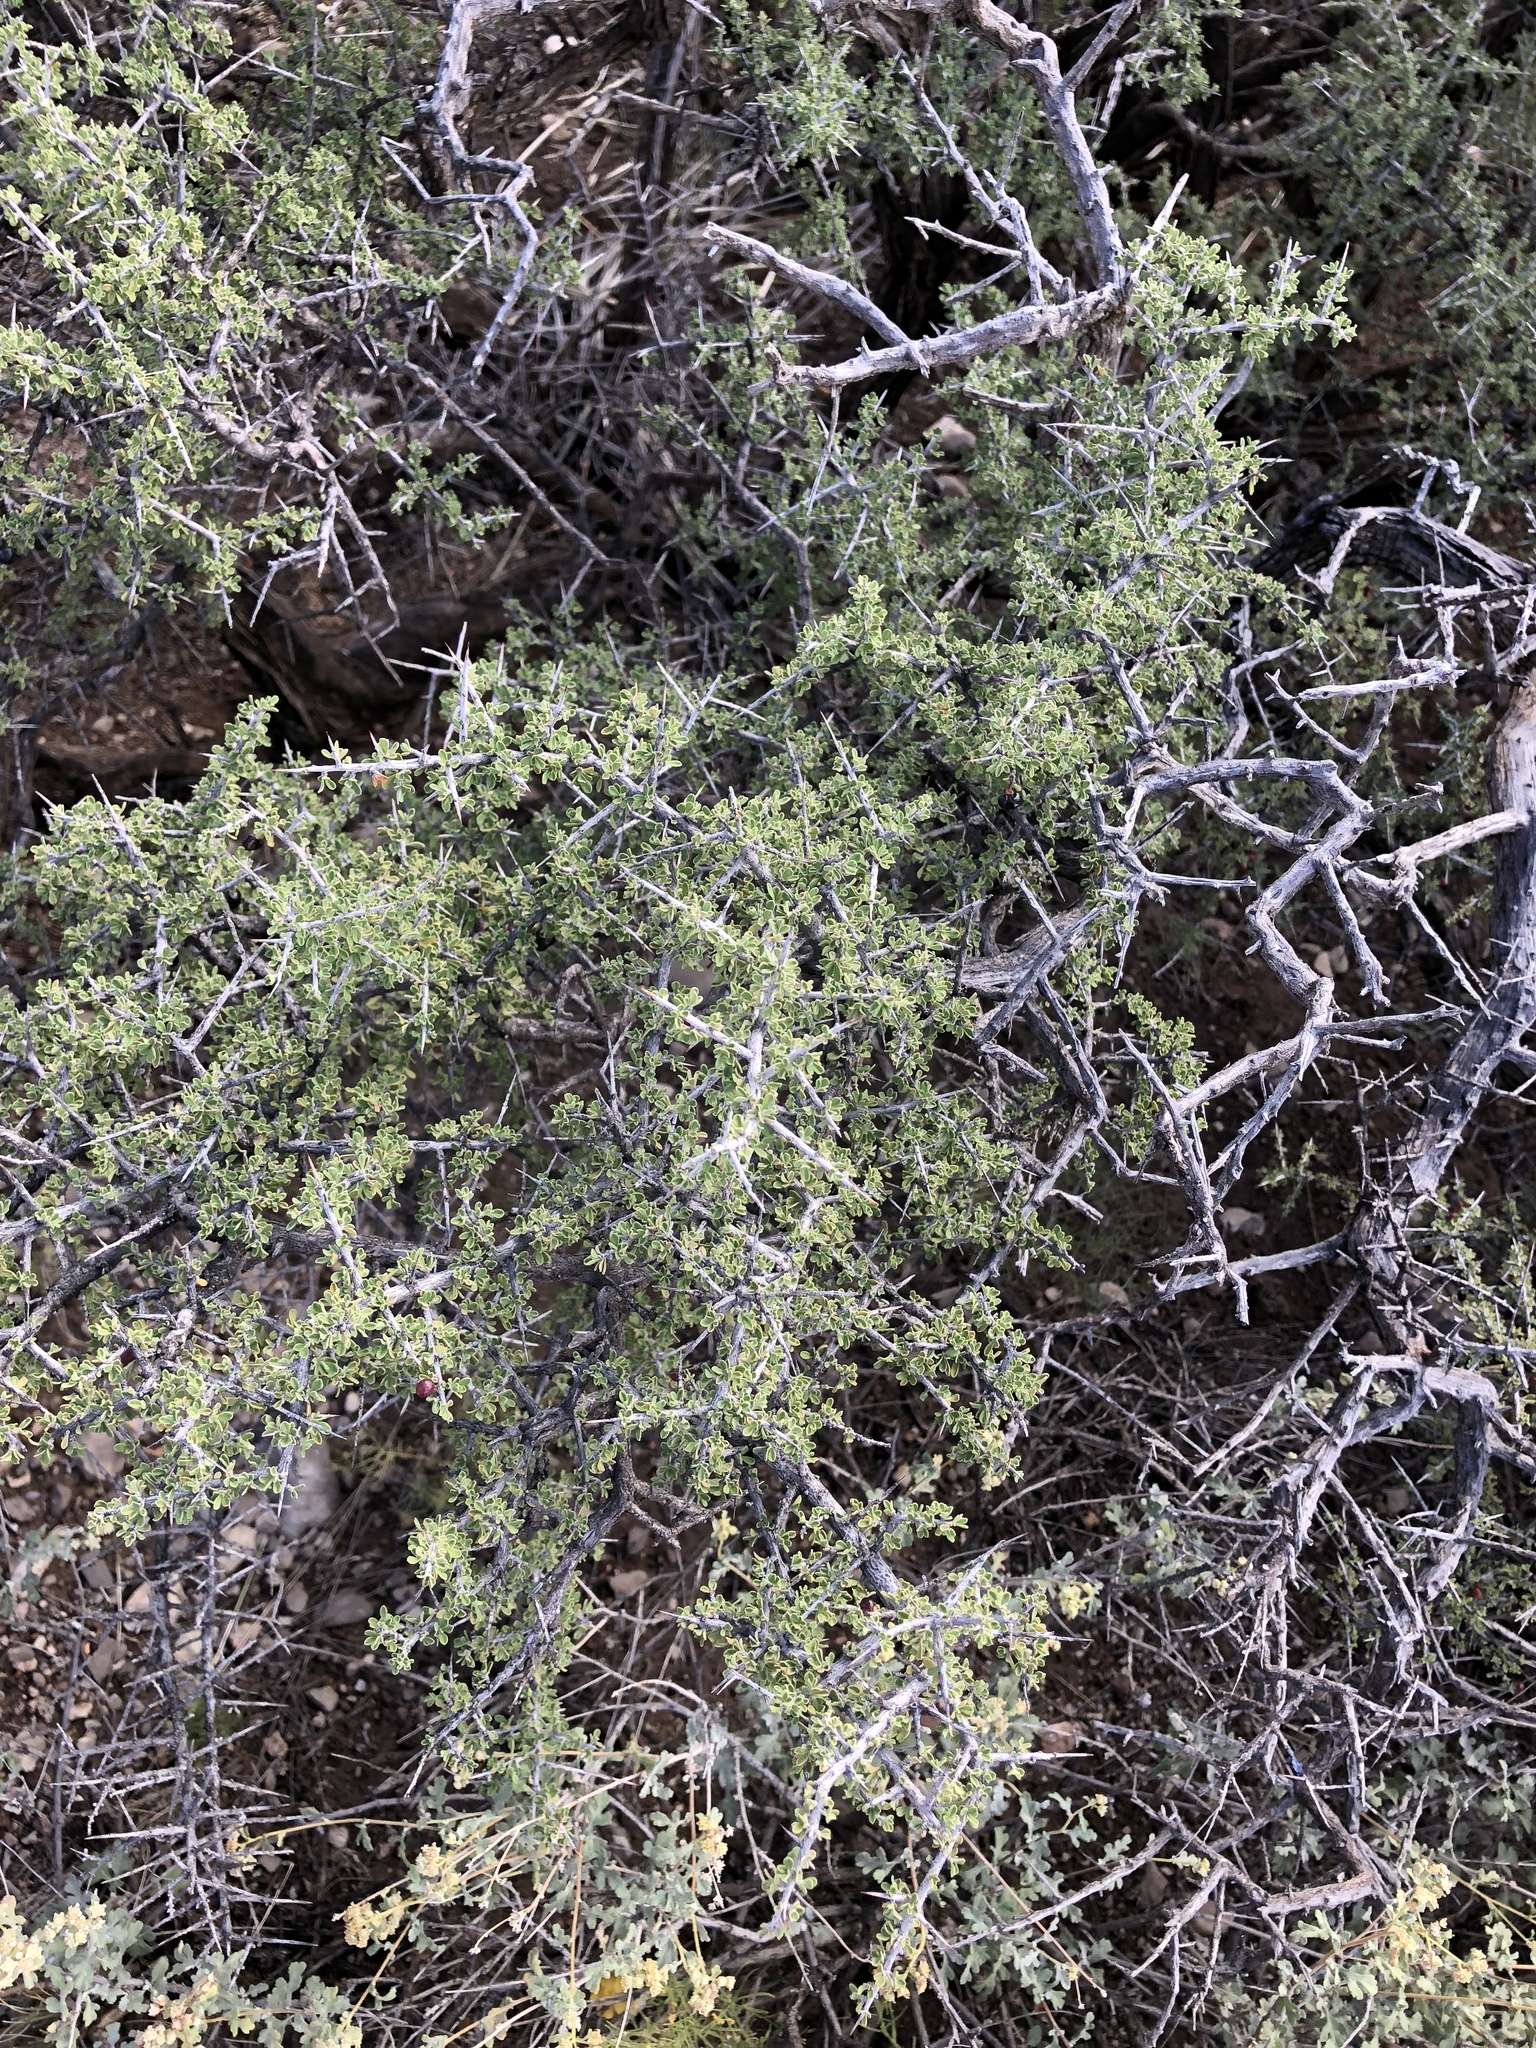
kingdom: Plantae
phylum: Tracheophyta
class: Magnoliopsida
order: Rosales
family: Rhamnaceae
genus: Condalia
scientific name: Condalia warnockii
